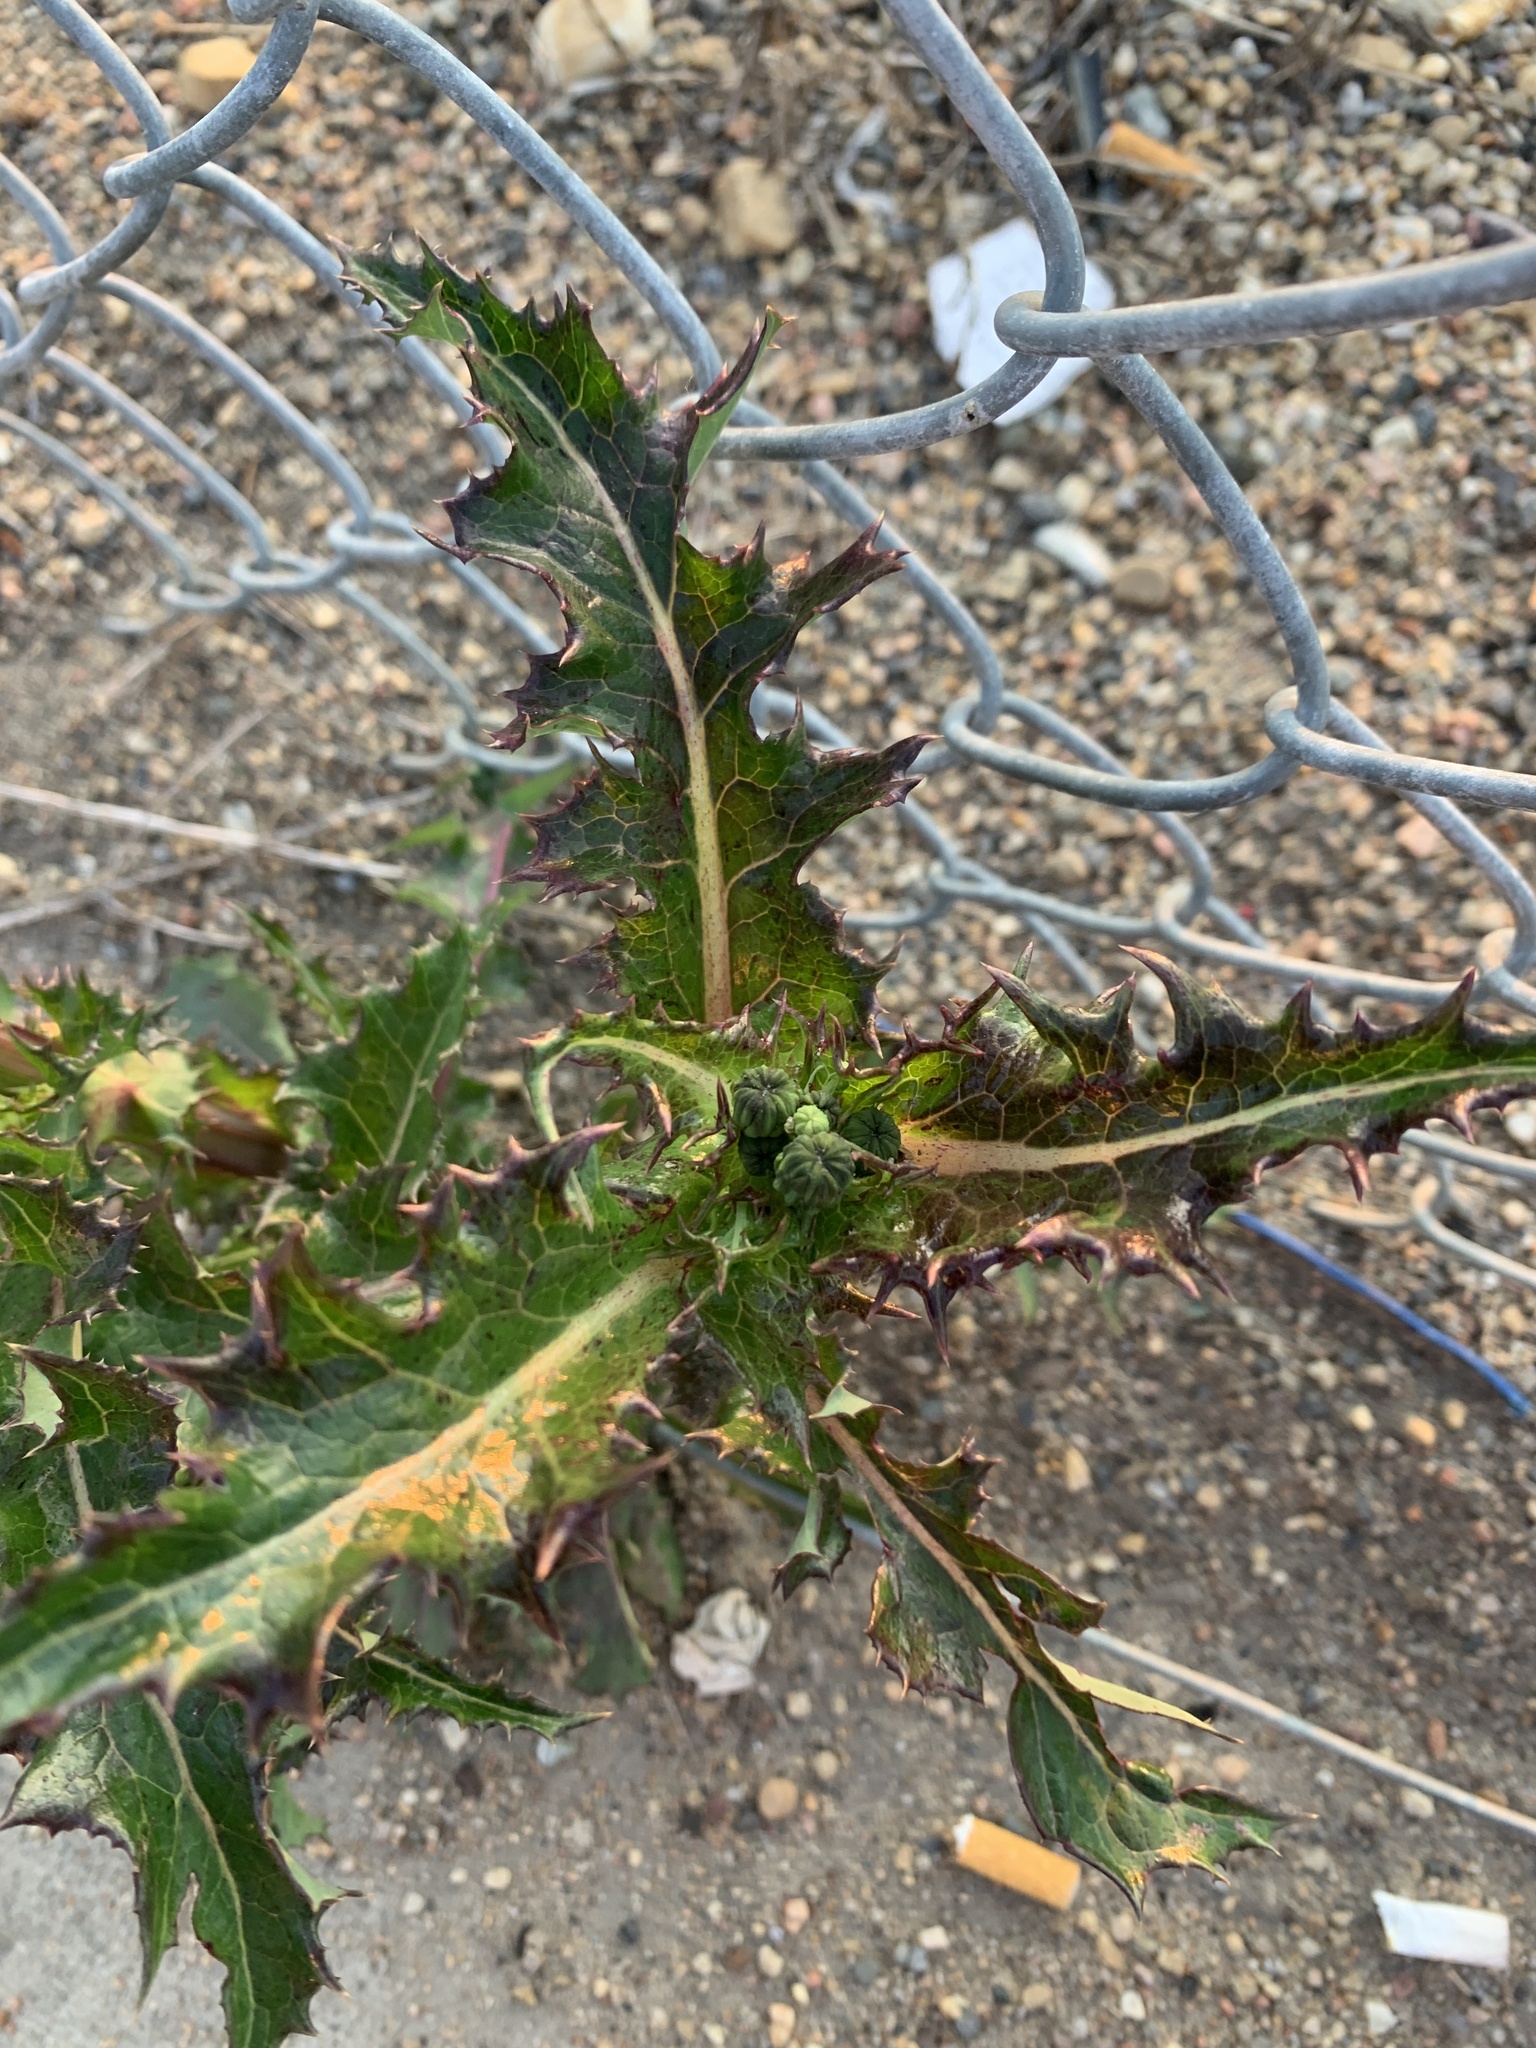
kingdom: Plantae
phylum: Tracheophyta
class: Magnoliopsida
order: Asterales
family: Asteraceae
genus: Sonchus
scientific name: Sonchus asper
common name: Prickly sow-thistle
